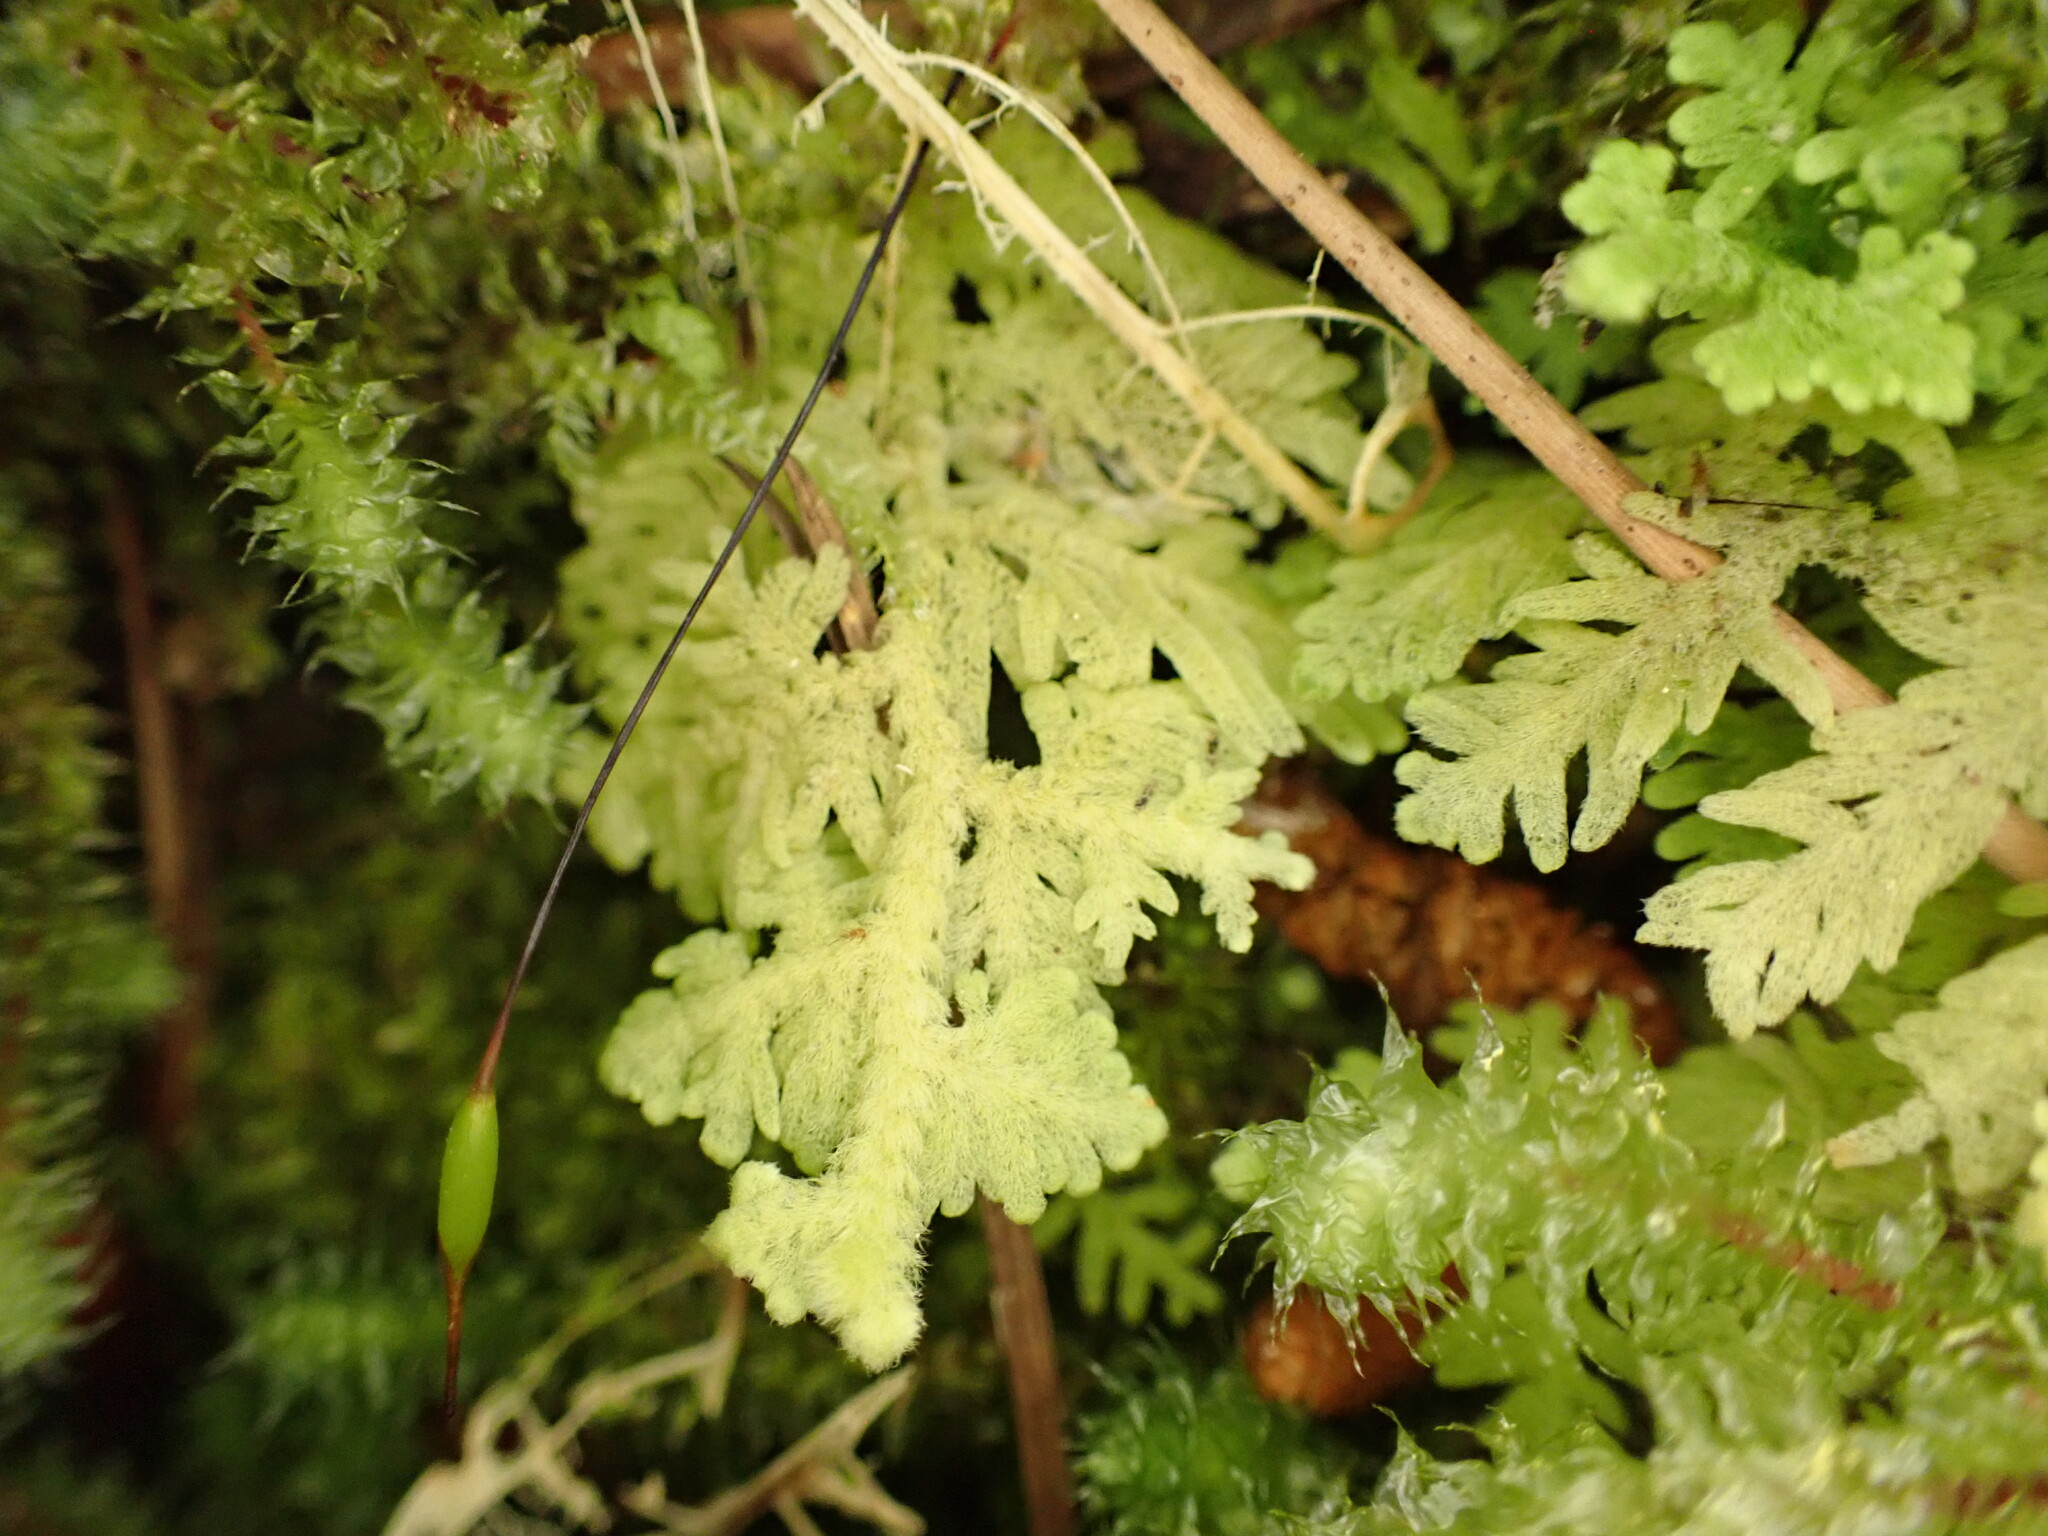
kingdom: Plantae
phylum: Marchantiophyta
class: Jungermanniopsida
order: Jungermanniales
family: Trichocoleaceae
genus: Trichocolea
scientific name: Trichocolea mollissima
